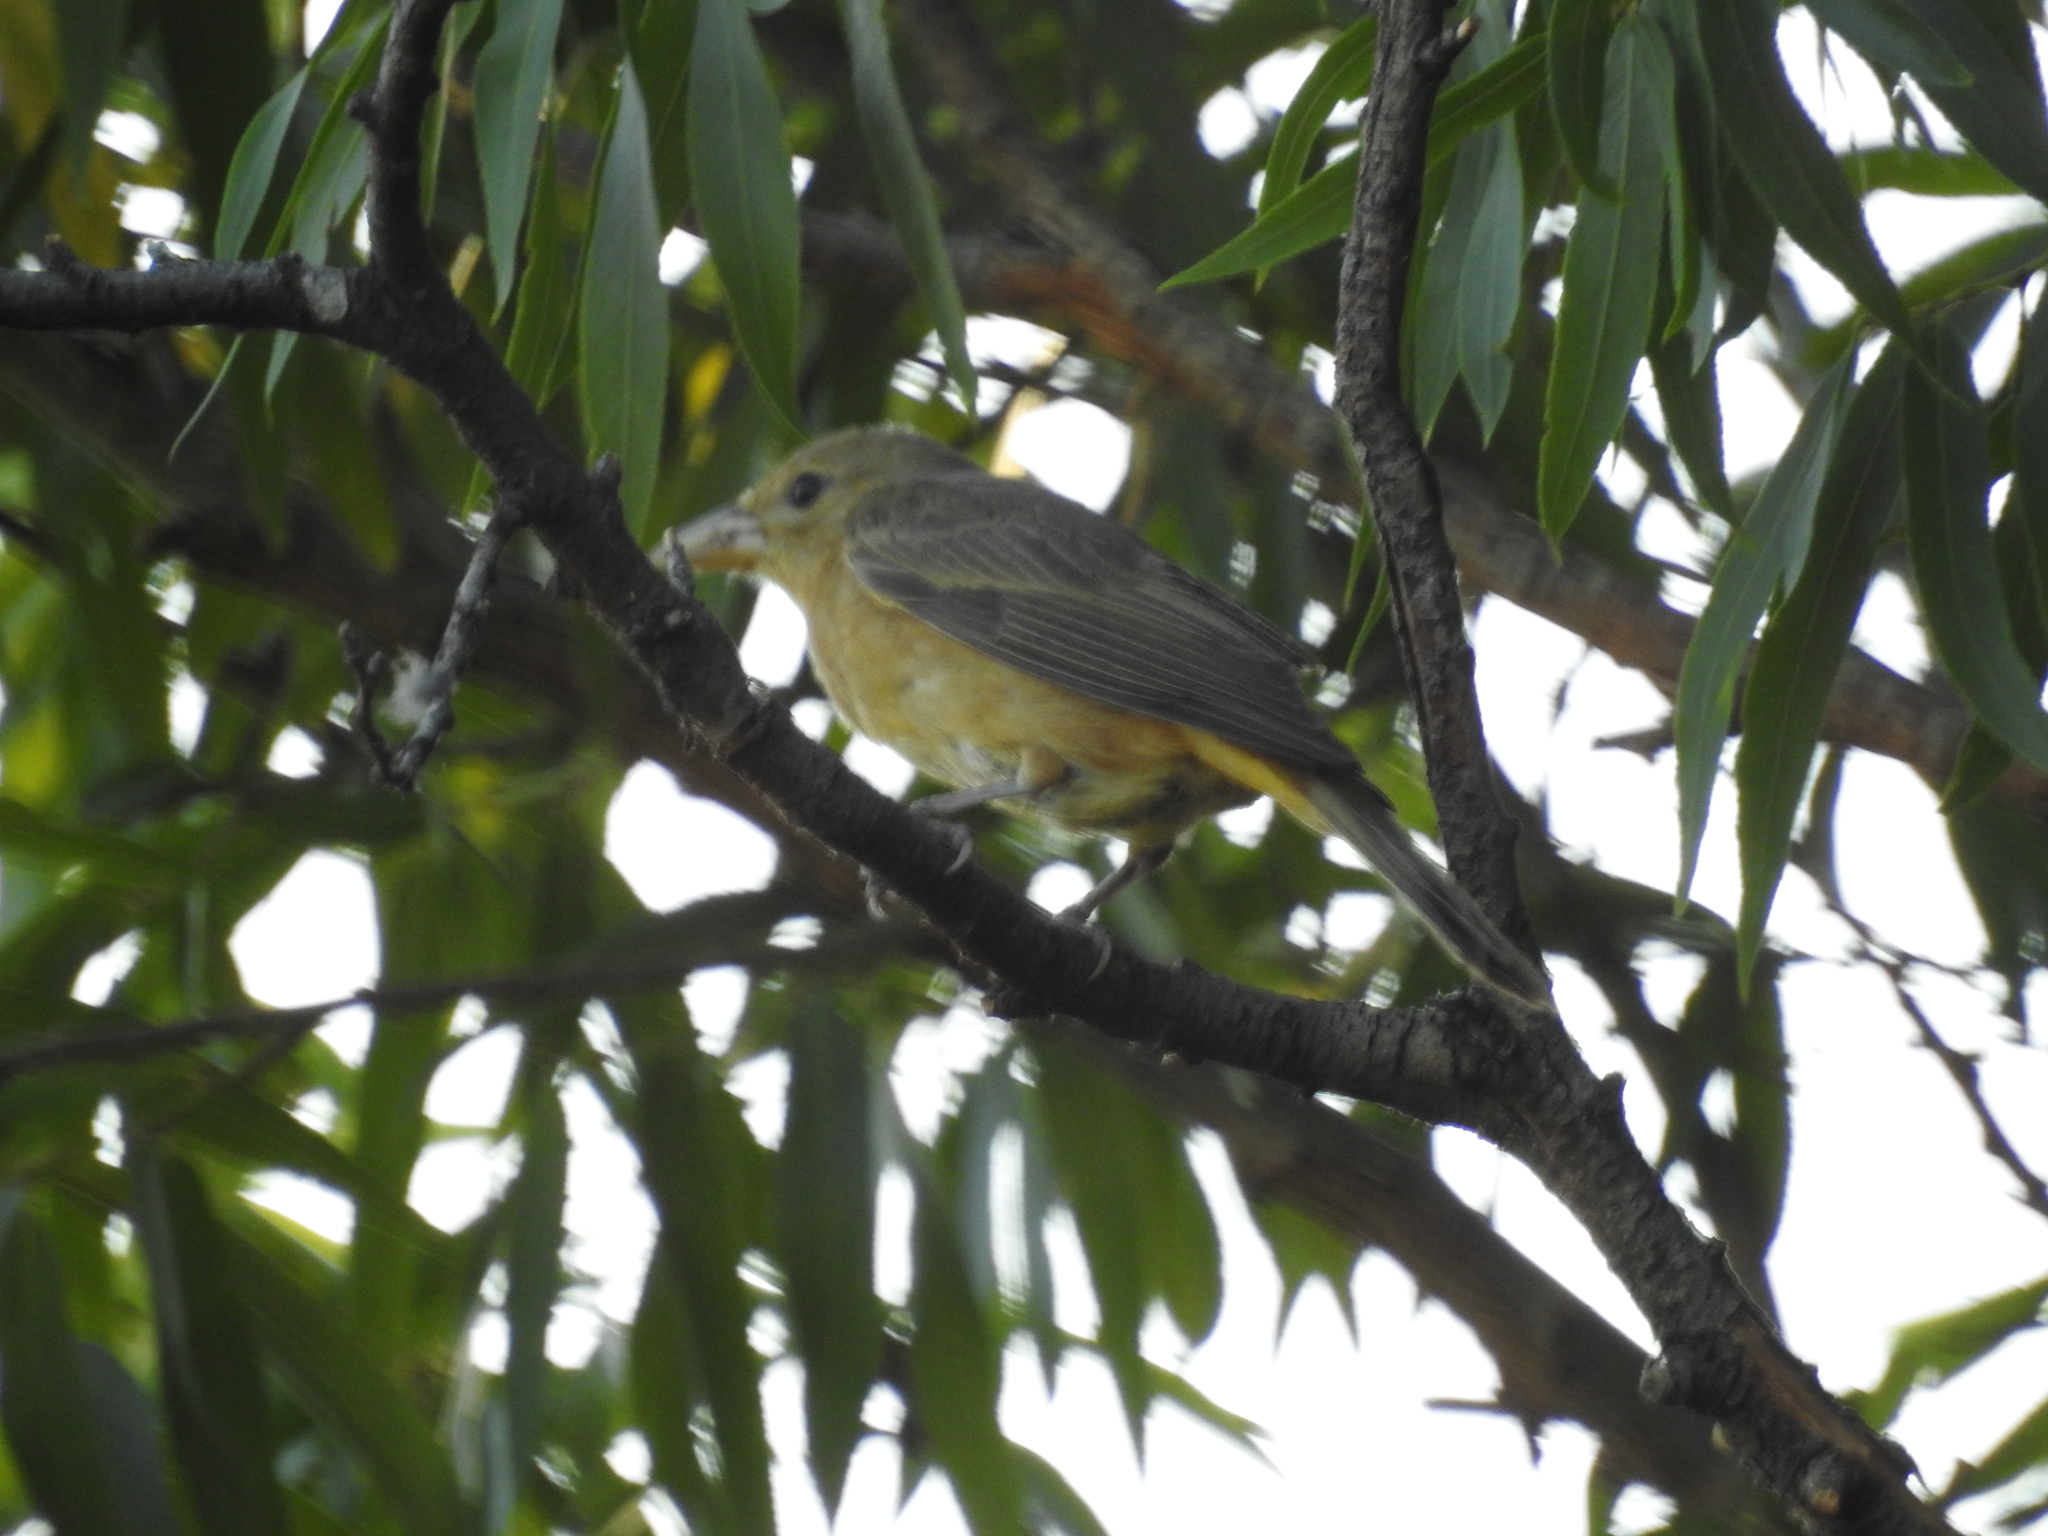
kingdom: Animalia
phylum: Chordata
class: Aves
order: Passeriformes
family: Cardinalidae
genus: Piranga
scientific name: Piranga rubra
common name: Summer tanager
